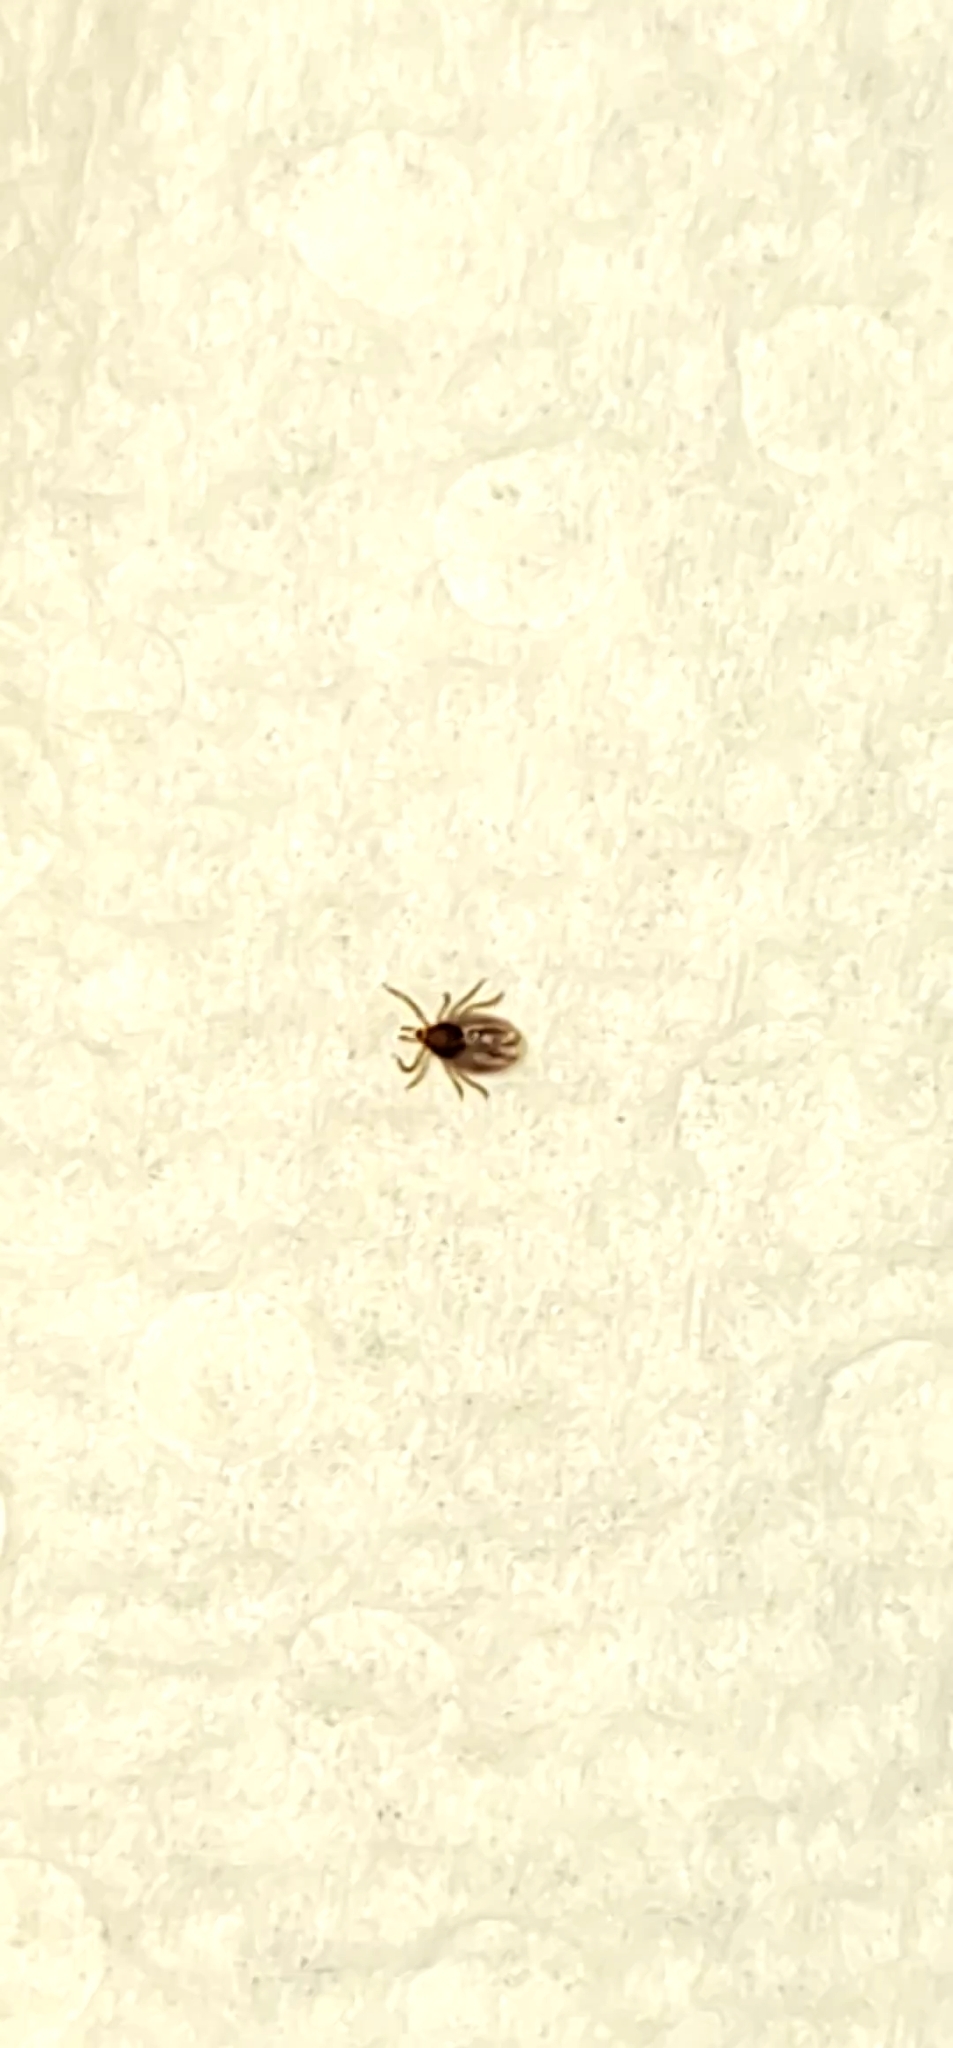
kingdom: Animalia
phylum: Arthropoda
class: Arachnida
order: Ixodida
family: Ixodidae
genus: Ixodes
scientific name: Ixodes scapularis
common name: Black legged tick
